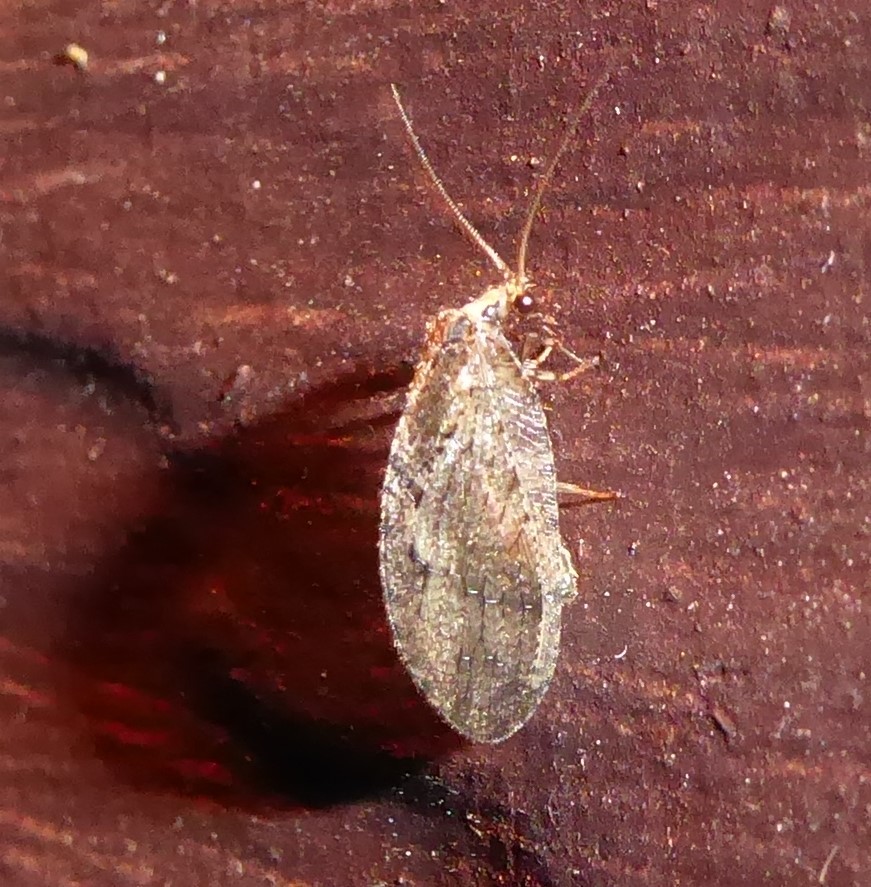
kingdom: Animalia
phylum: Arthropoda
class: Insecta
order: Neuroptera
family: Hemerobiidae
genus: Psectra
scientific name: Psectra nakaharai
